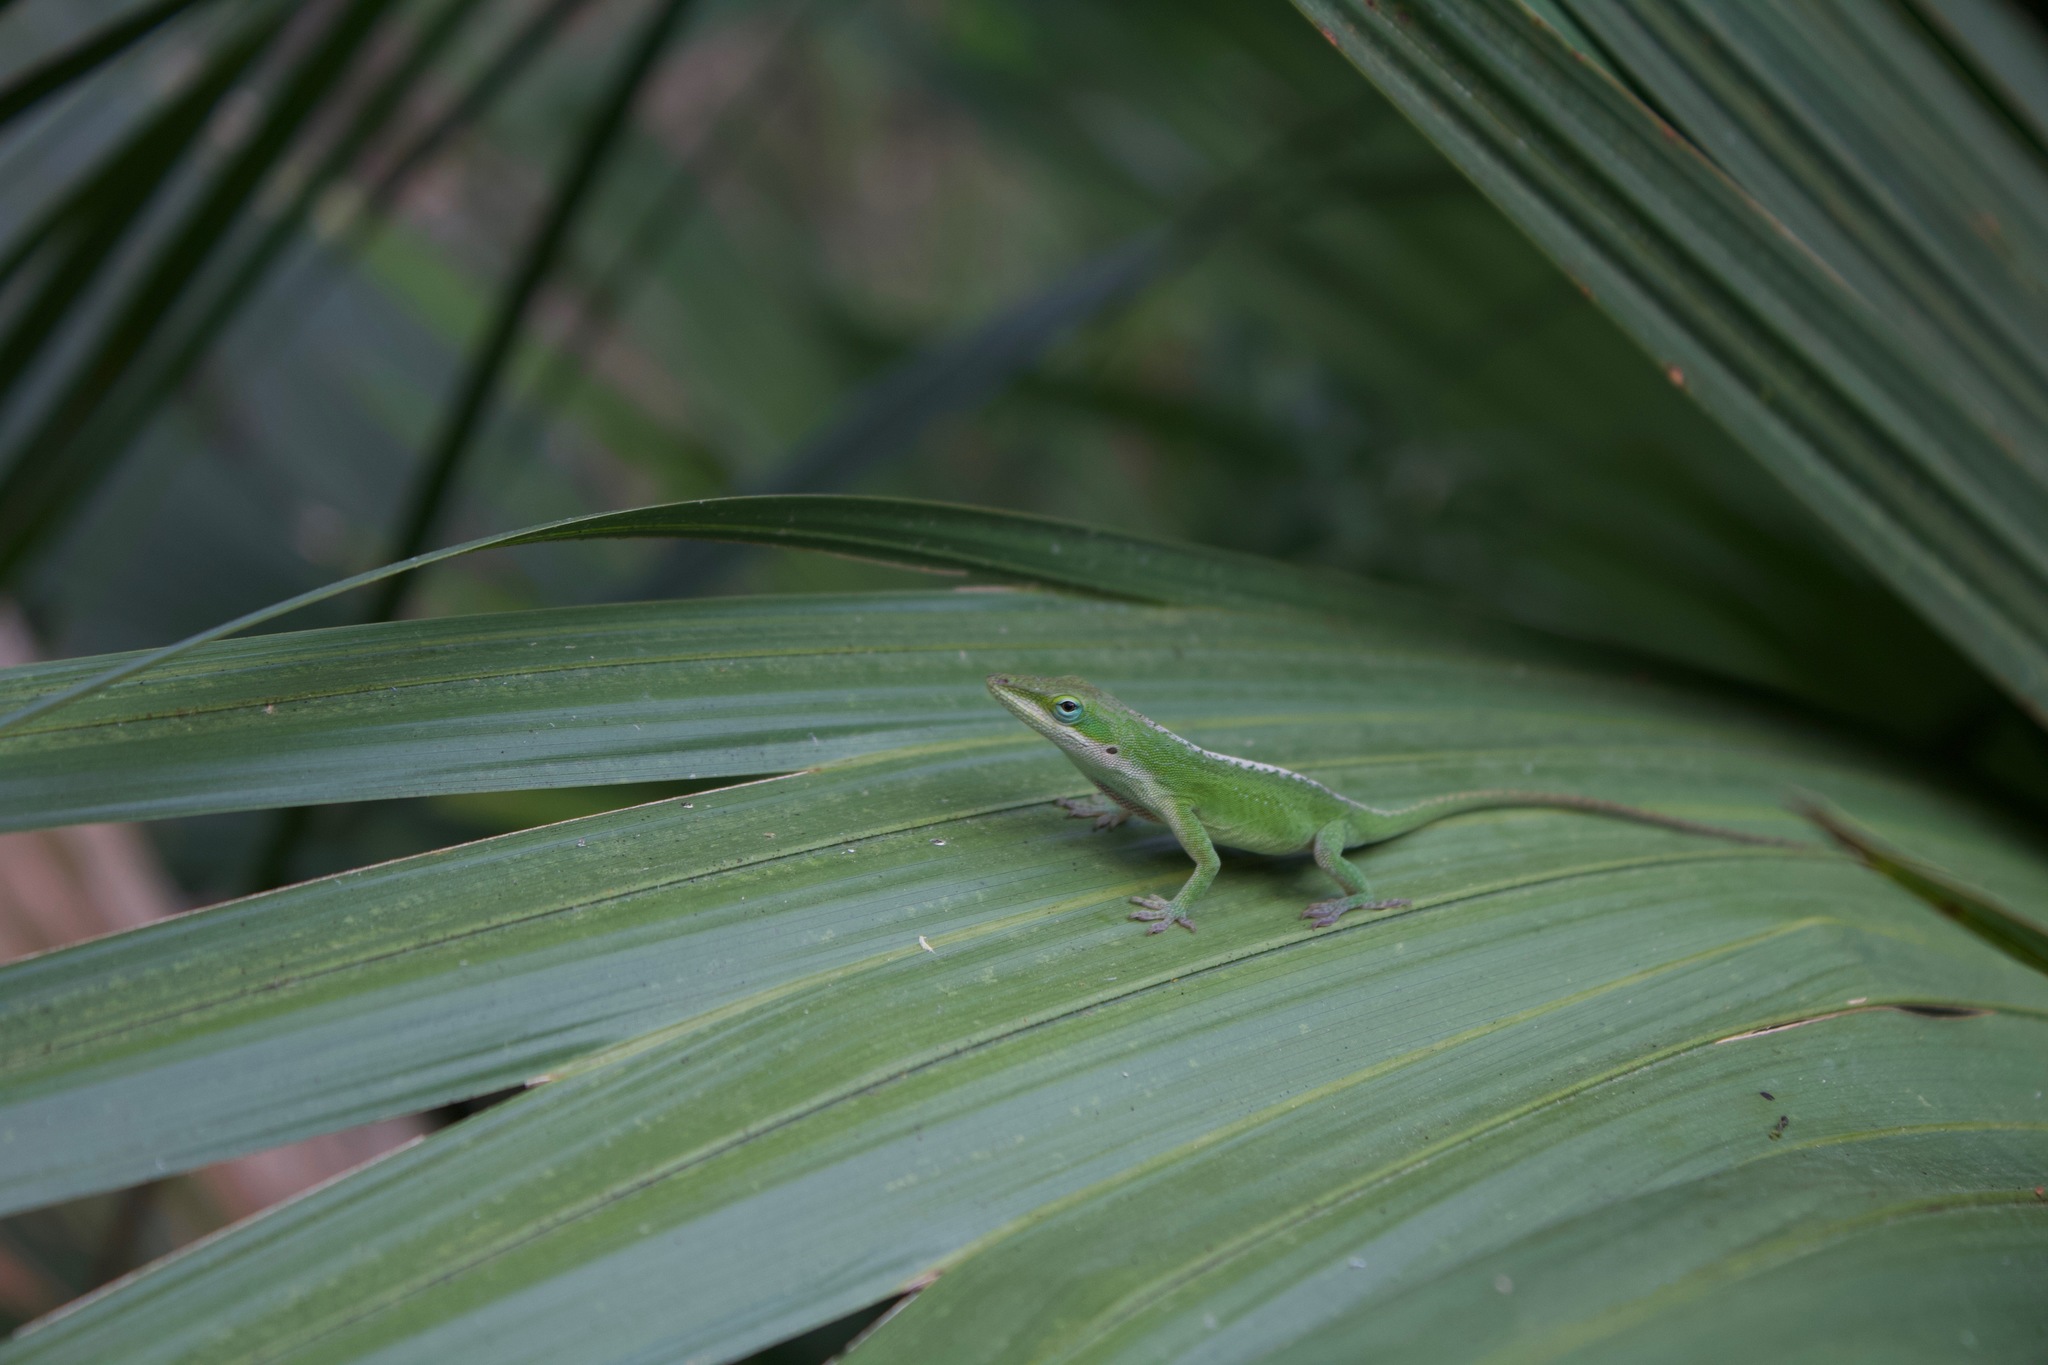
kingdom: Animalia
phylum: Chordata
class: Squamata
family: Dactyloidae
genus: Anolis
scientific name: Anolis carolinensis
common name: Green anole
